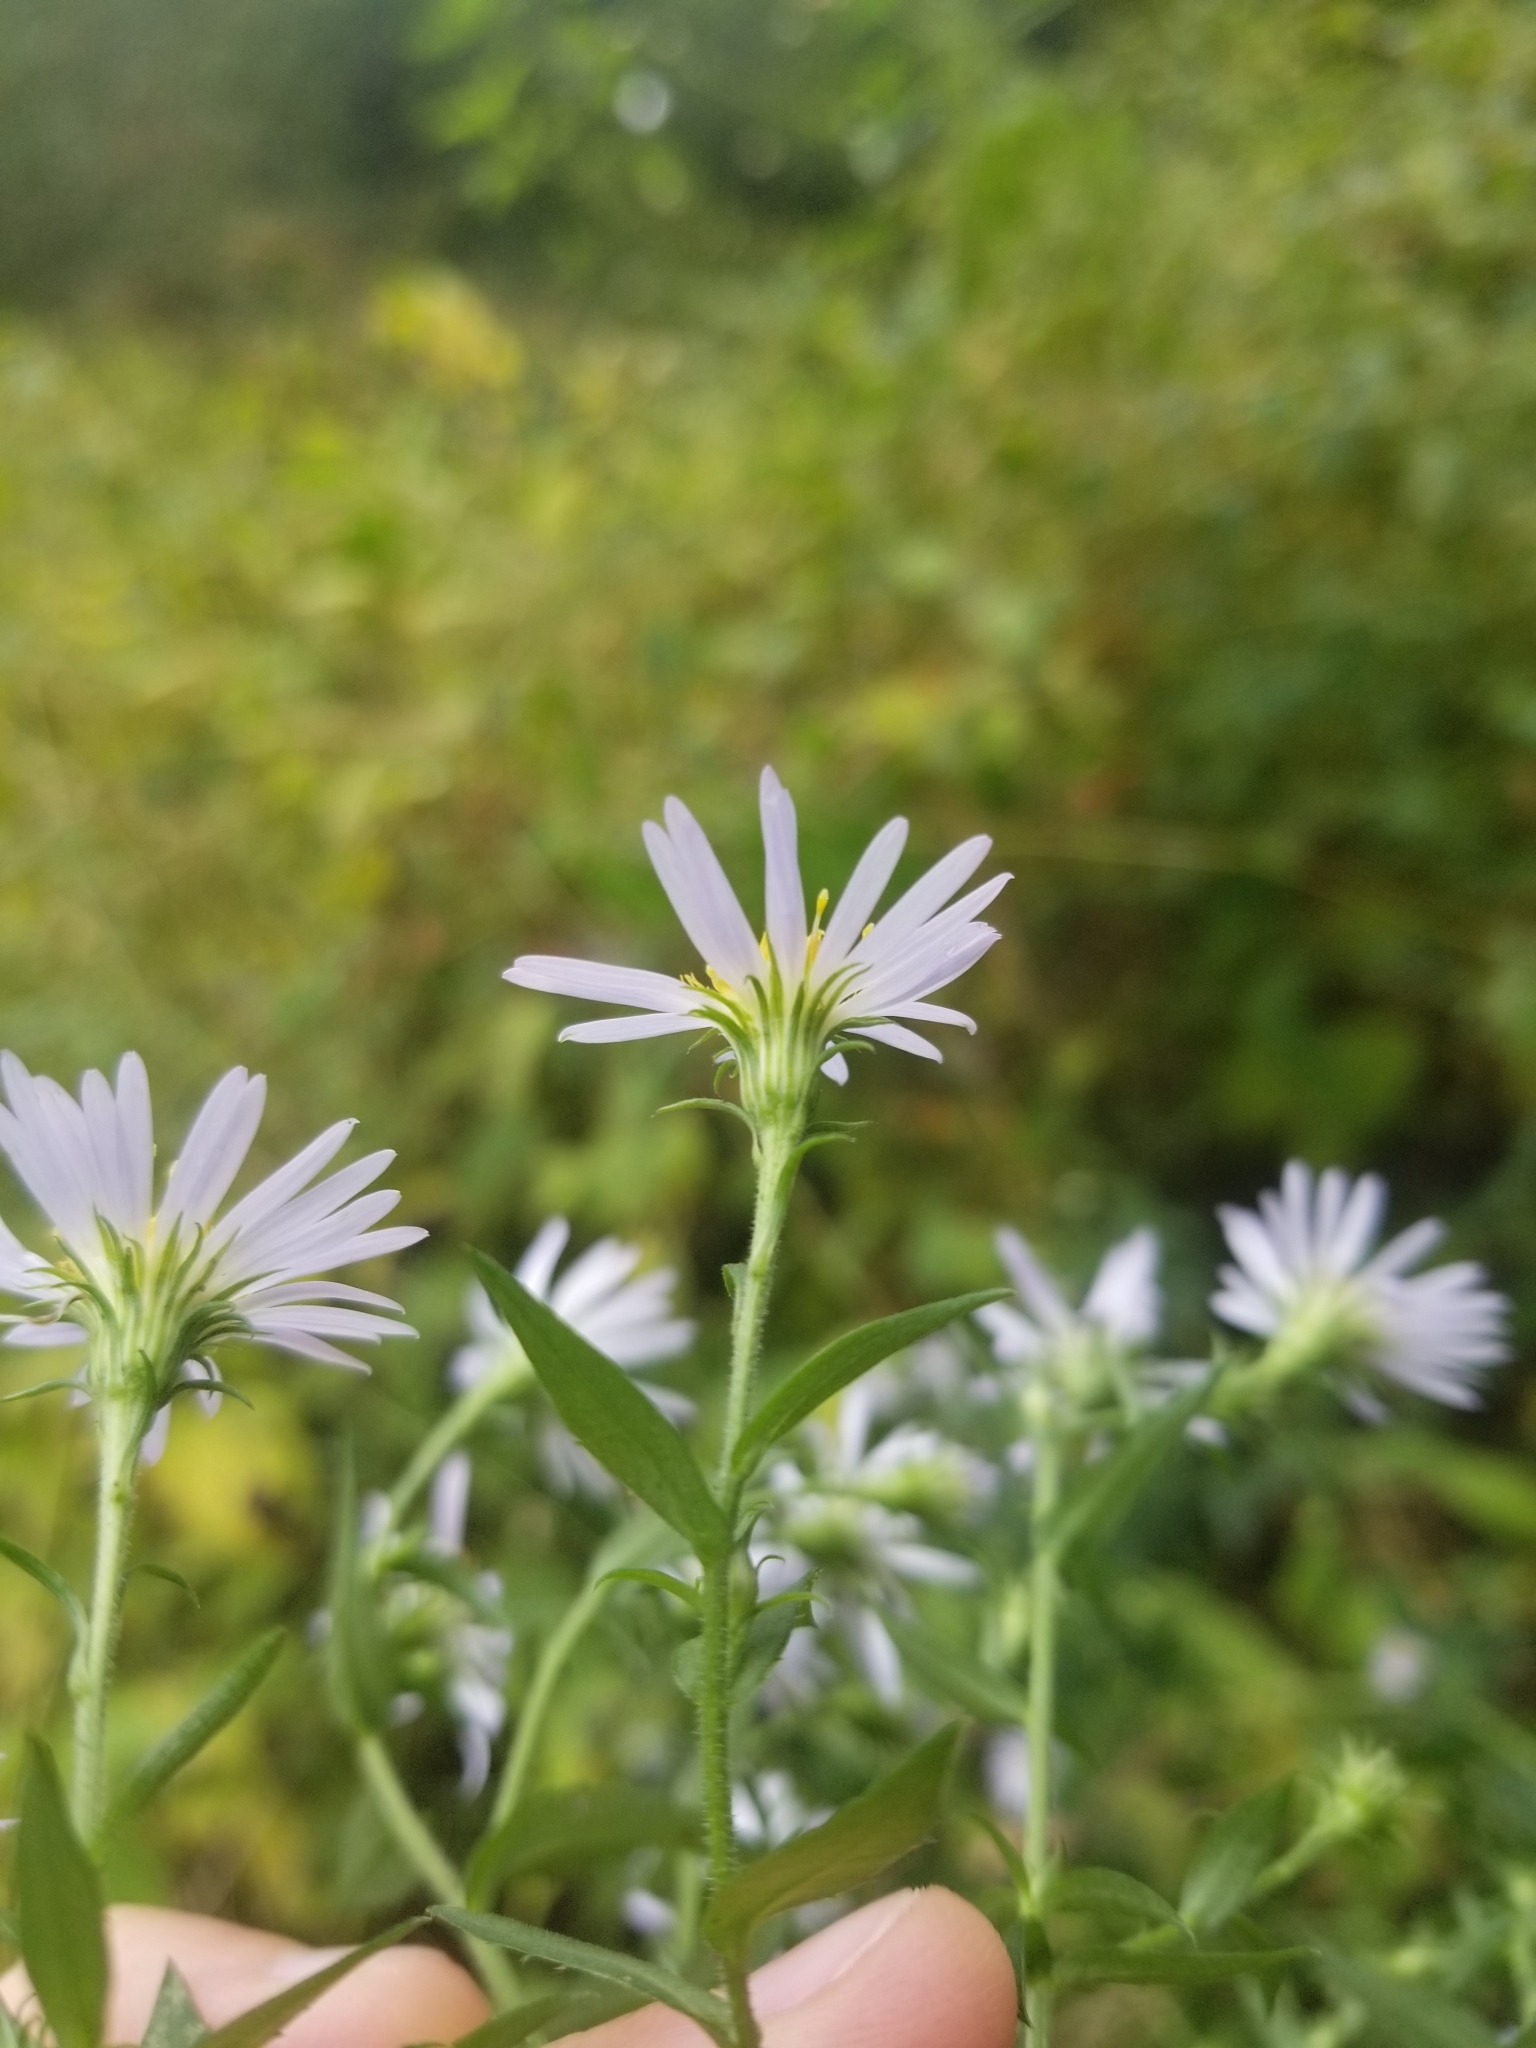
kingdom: Plantae
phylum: Tracheophyta
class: Magnoliopsida
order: Asterales
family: Asteraceae
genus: Symphyotrichum
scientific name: Symphyotrichum puniceum
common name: Bog aster
